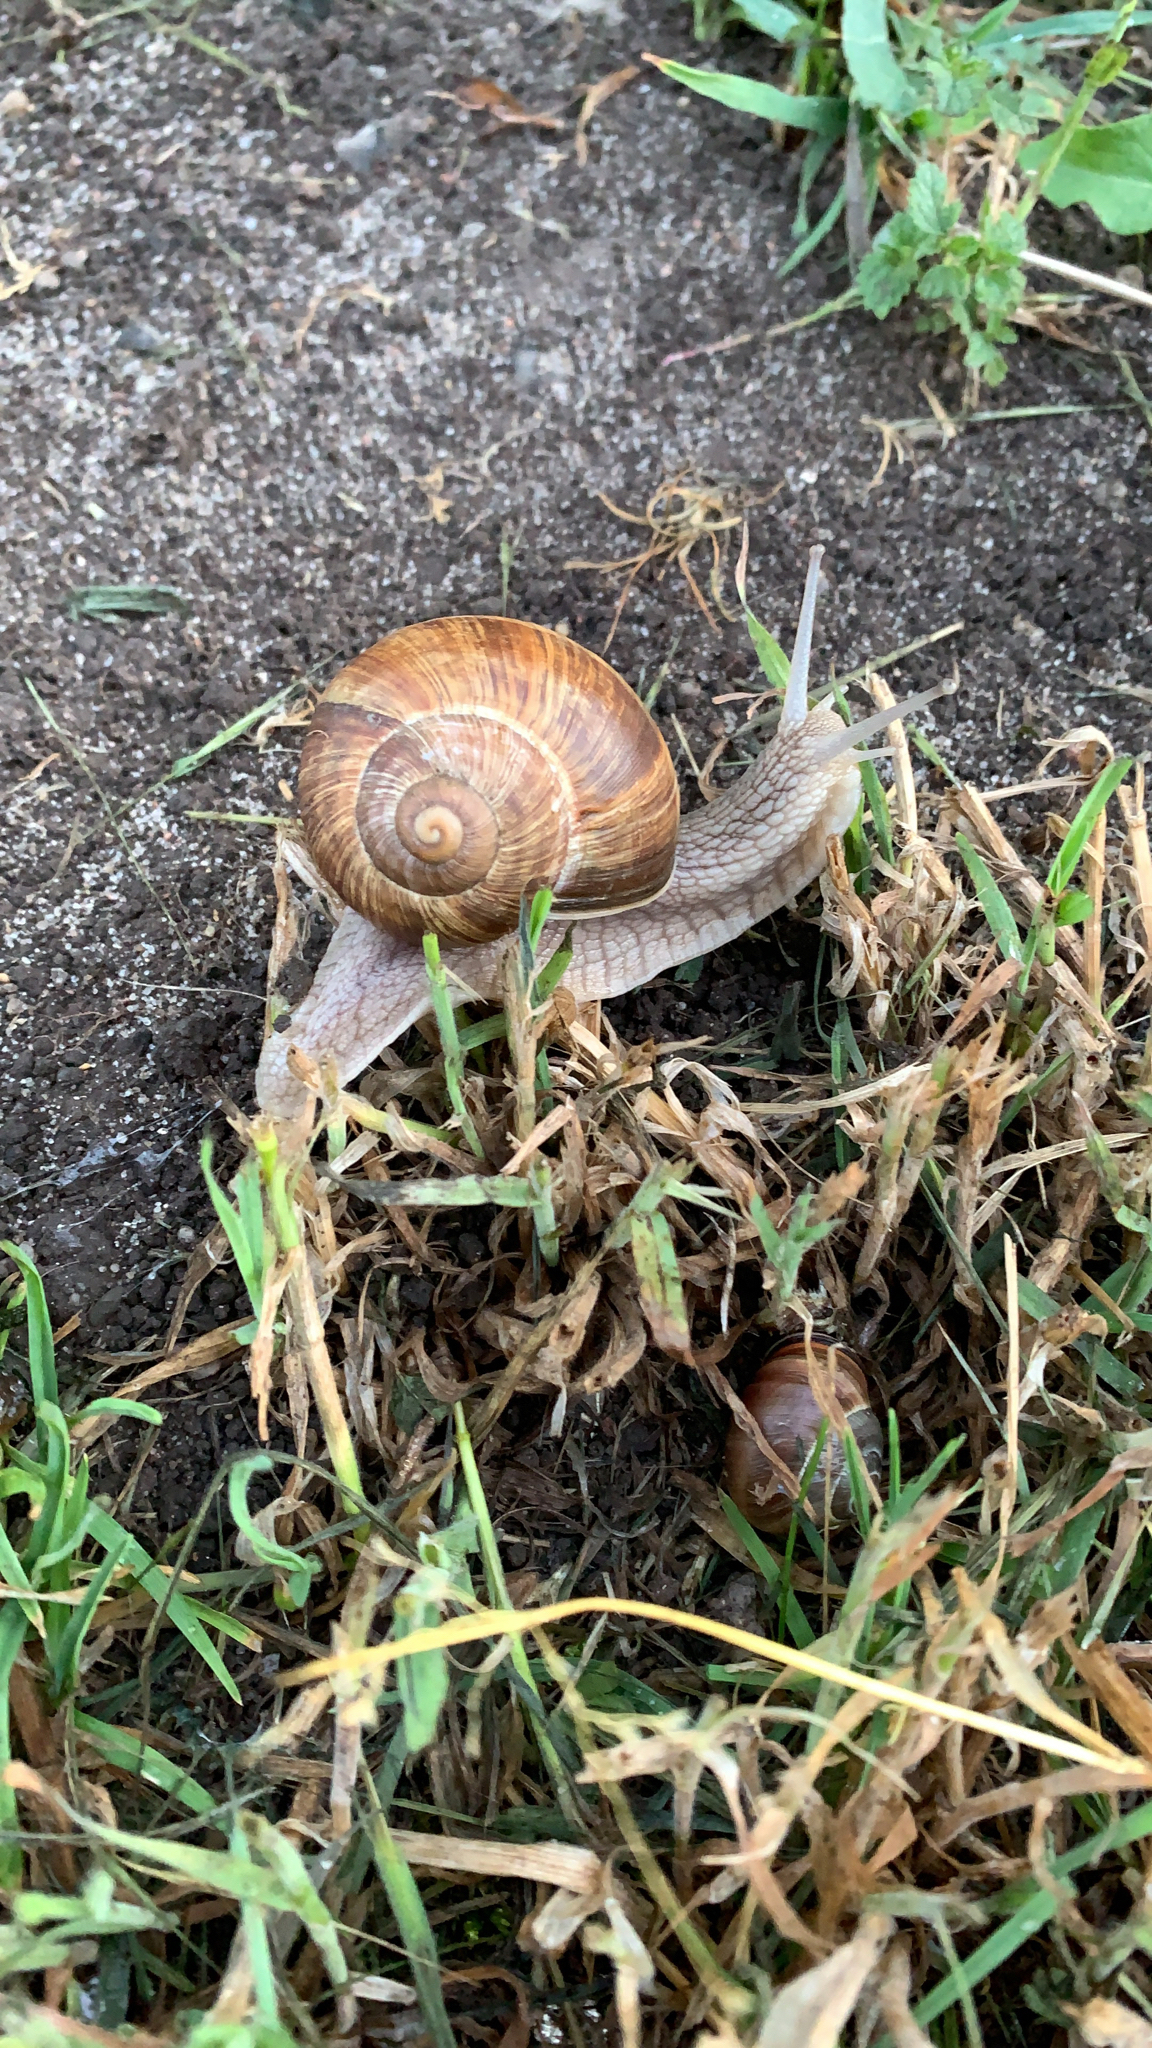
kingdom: Animalia
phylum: Mollusca
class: Gastropoda
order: Stylommatophora
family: Helicidae
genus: Helix
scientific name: Helix pomatia
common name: Roman snail
